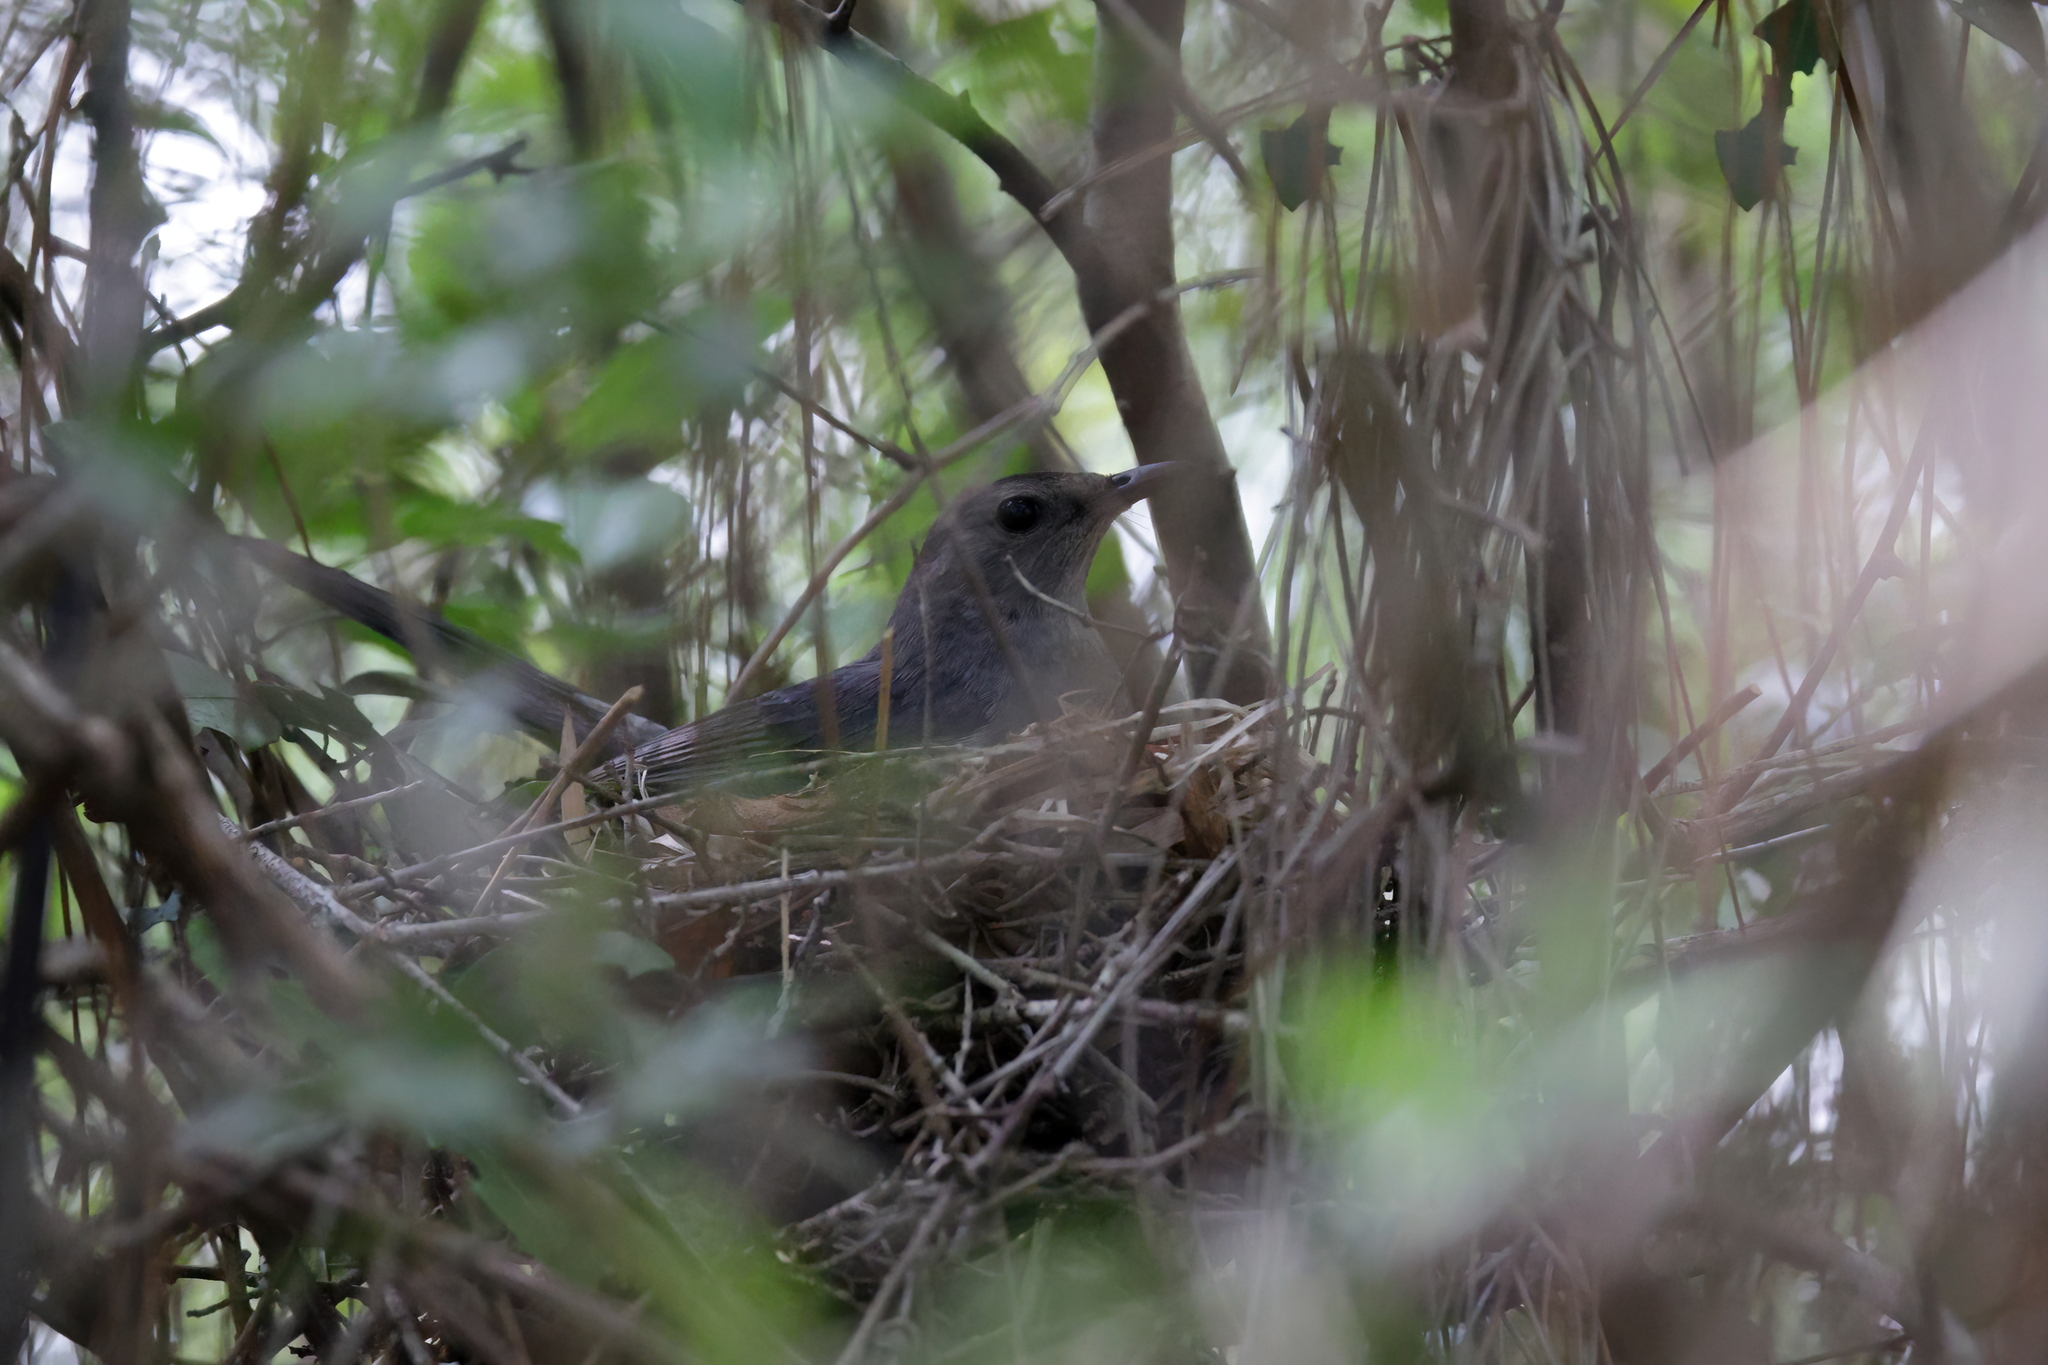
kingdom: Animalia
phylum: Chordata
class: Aves
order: Passeriformes
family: Mimidae
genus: Dumetella
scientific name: Dumetella carolinensis
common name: Gray catbird
